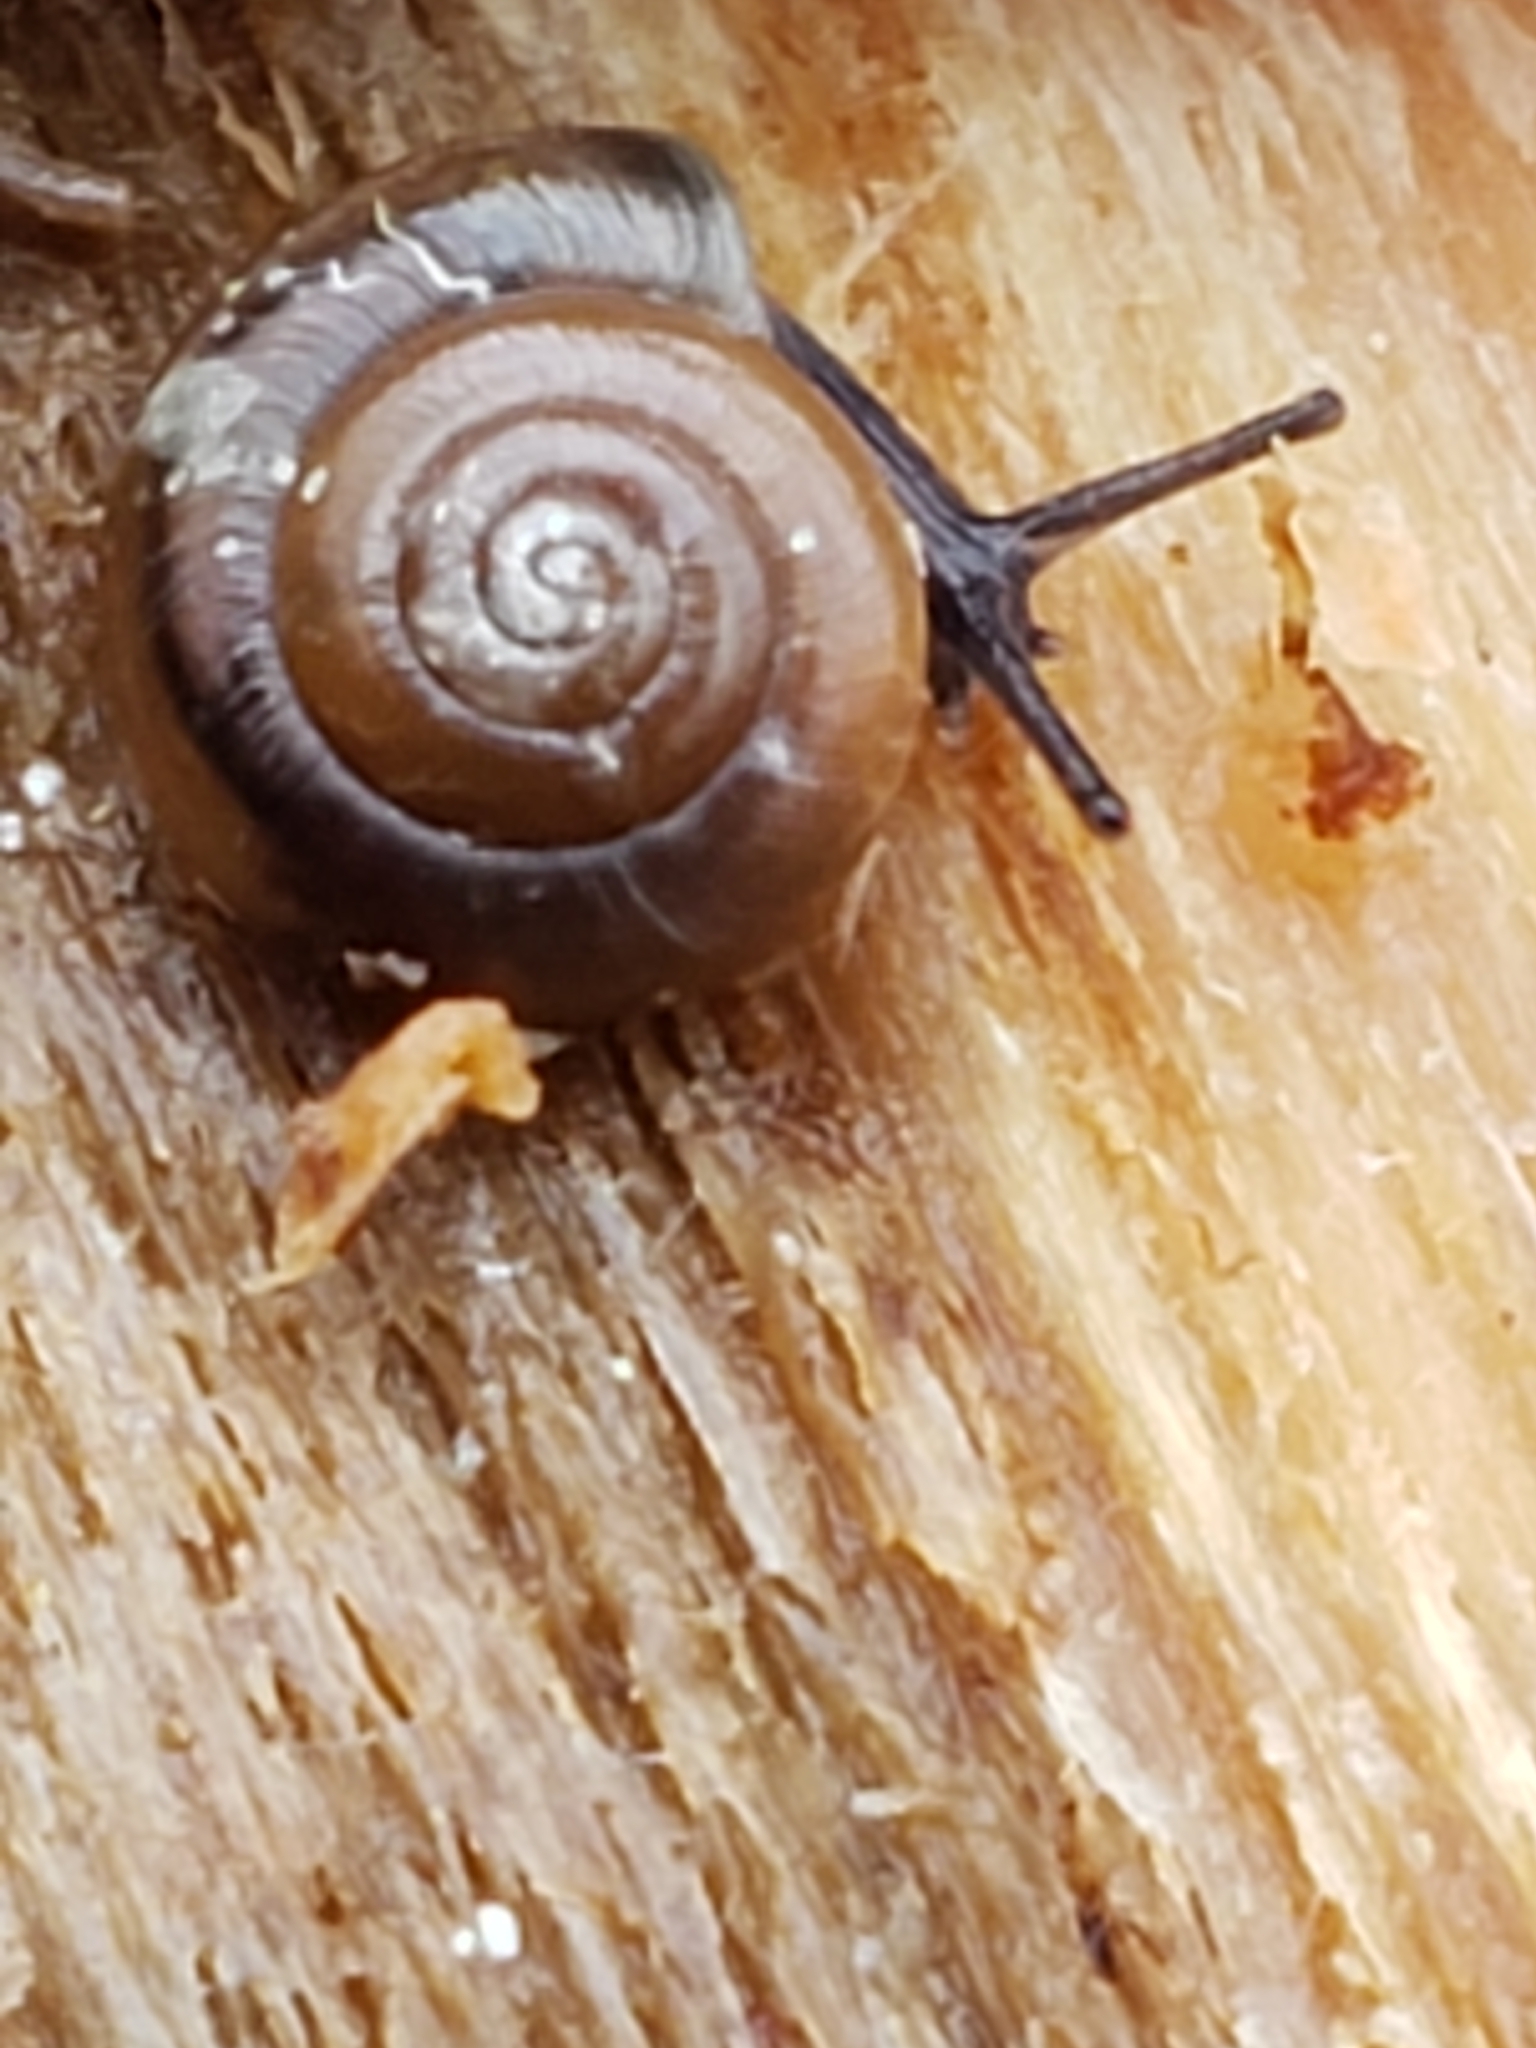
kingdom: Animalia
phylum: Mollusca
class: Gastropoda
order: Stylommatophora
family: Gastrodontidae
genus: Zonitoides
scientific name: Zonitoides arboreus
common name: Quick gloss
